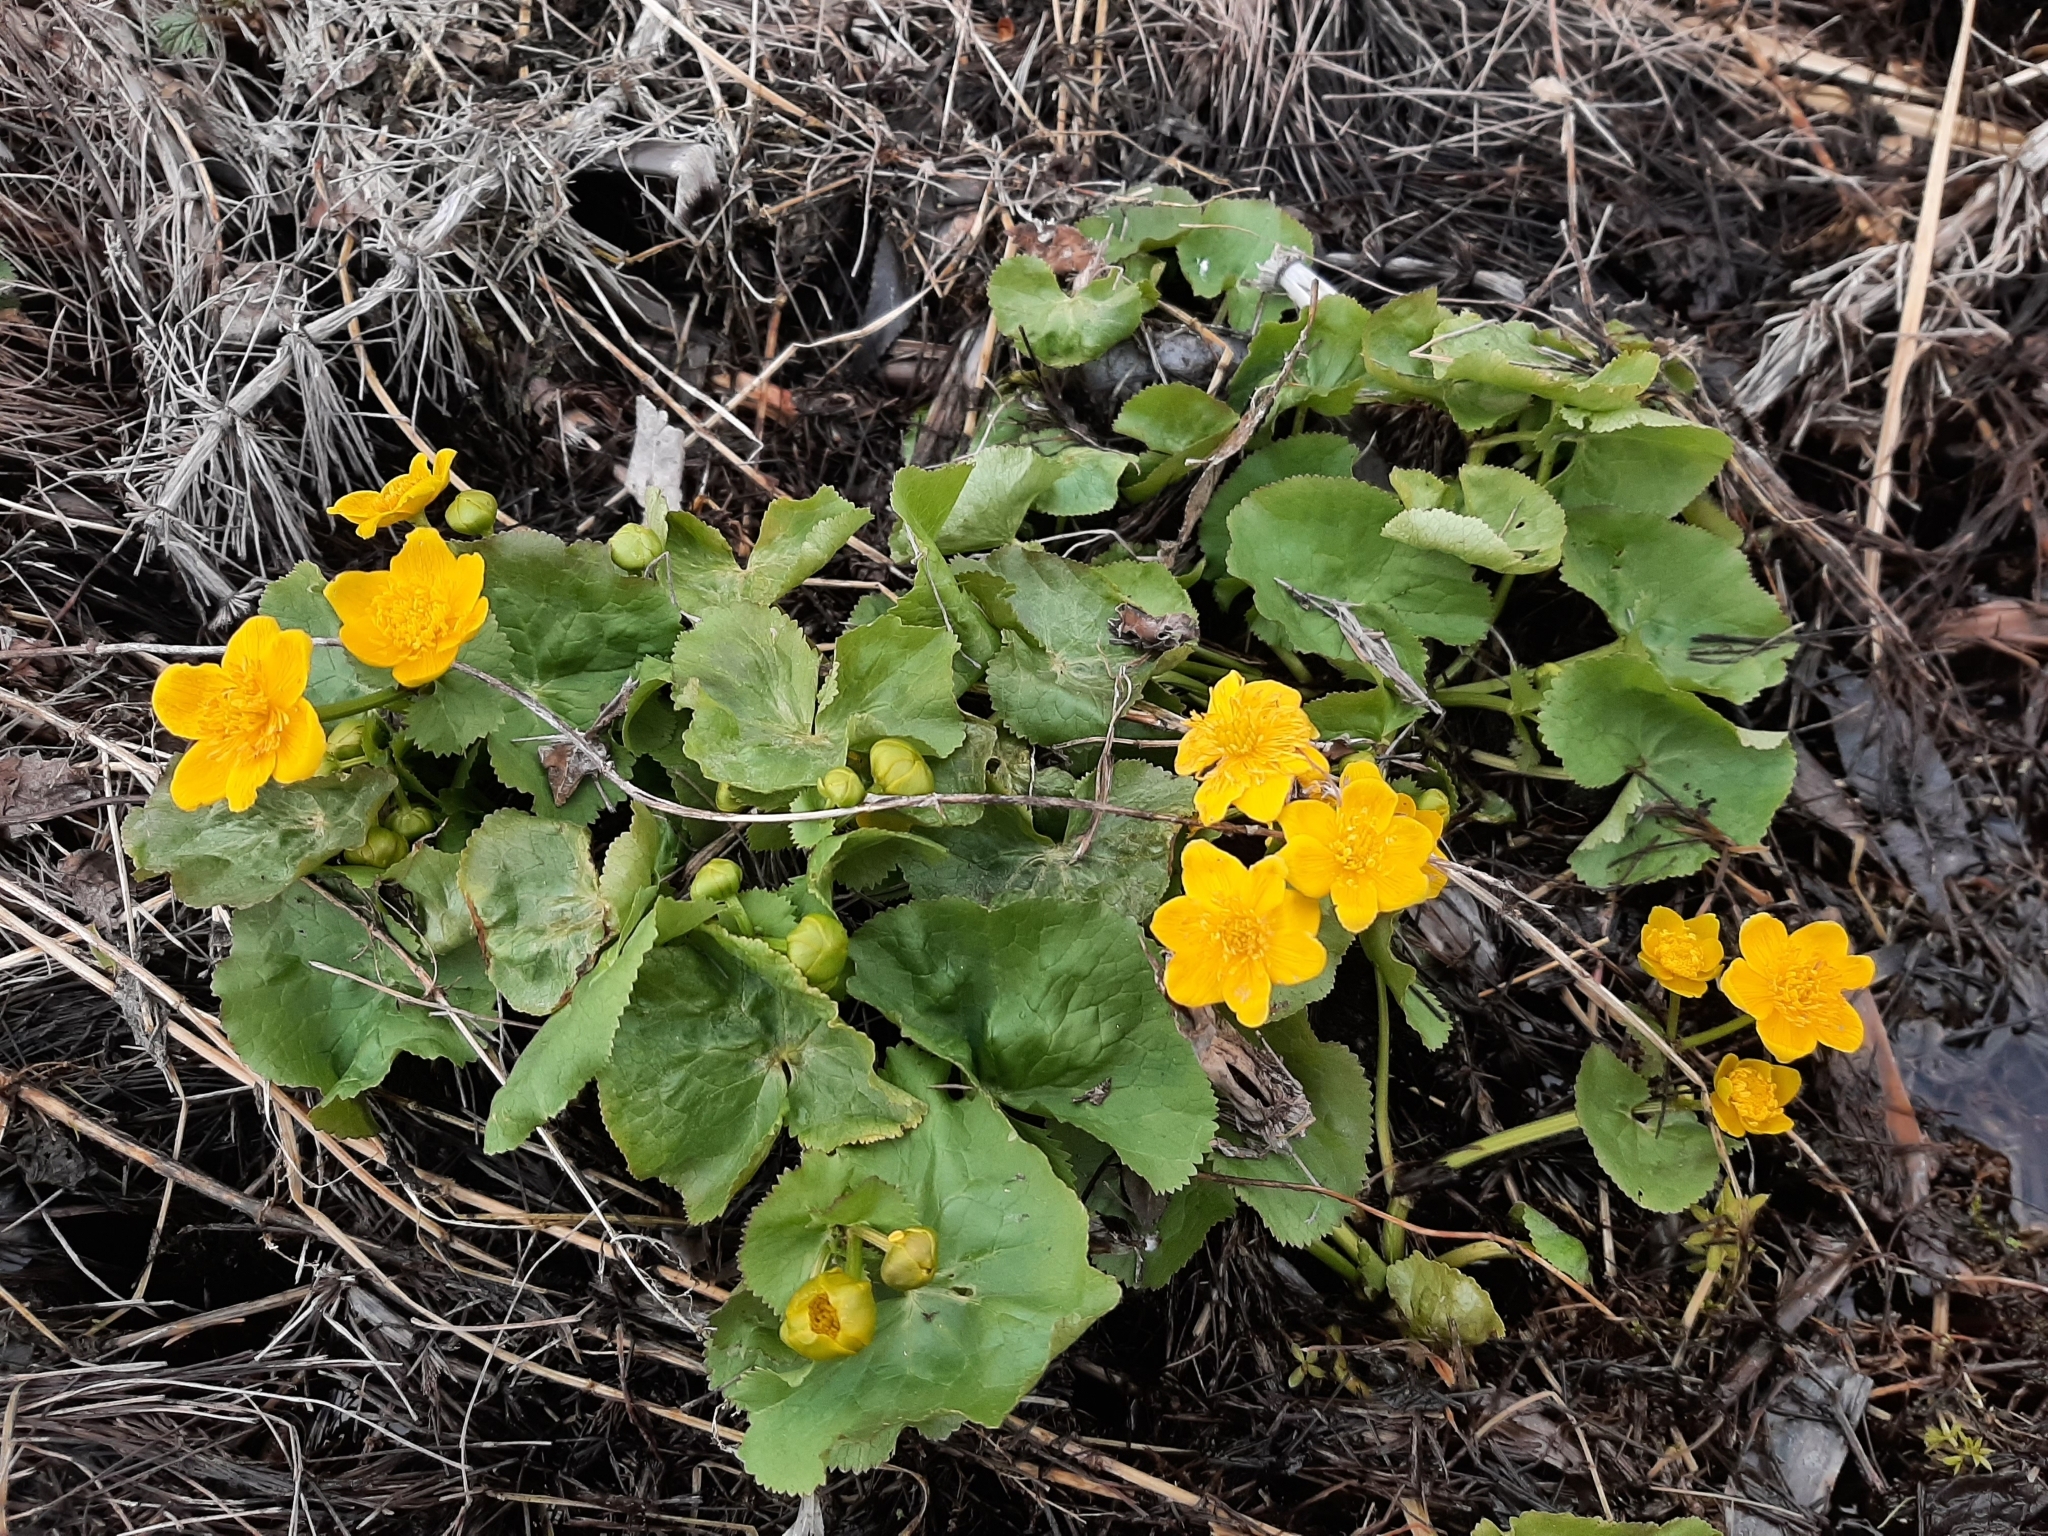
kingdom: Plantae
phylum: Tracheophyta
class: Magnoliopsida
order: Ranunculales
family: Ranunculaceae
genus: Caltha
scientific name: Caltha palustris
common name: Marsh marigold
